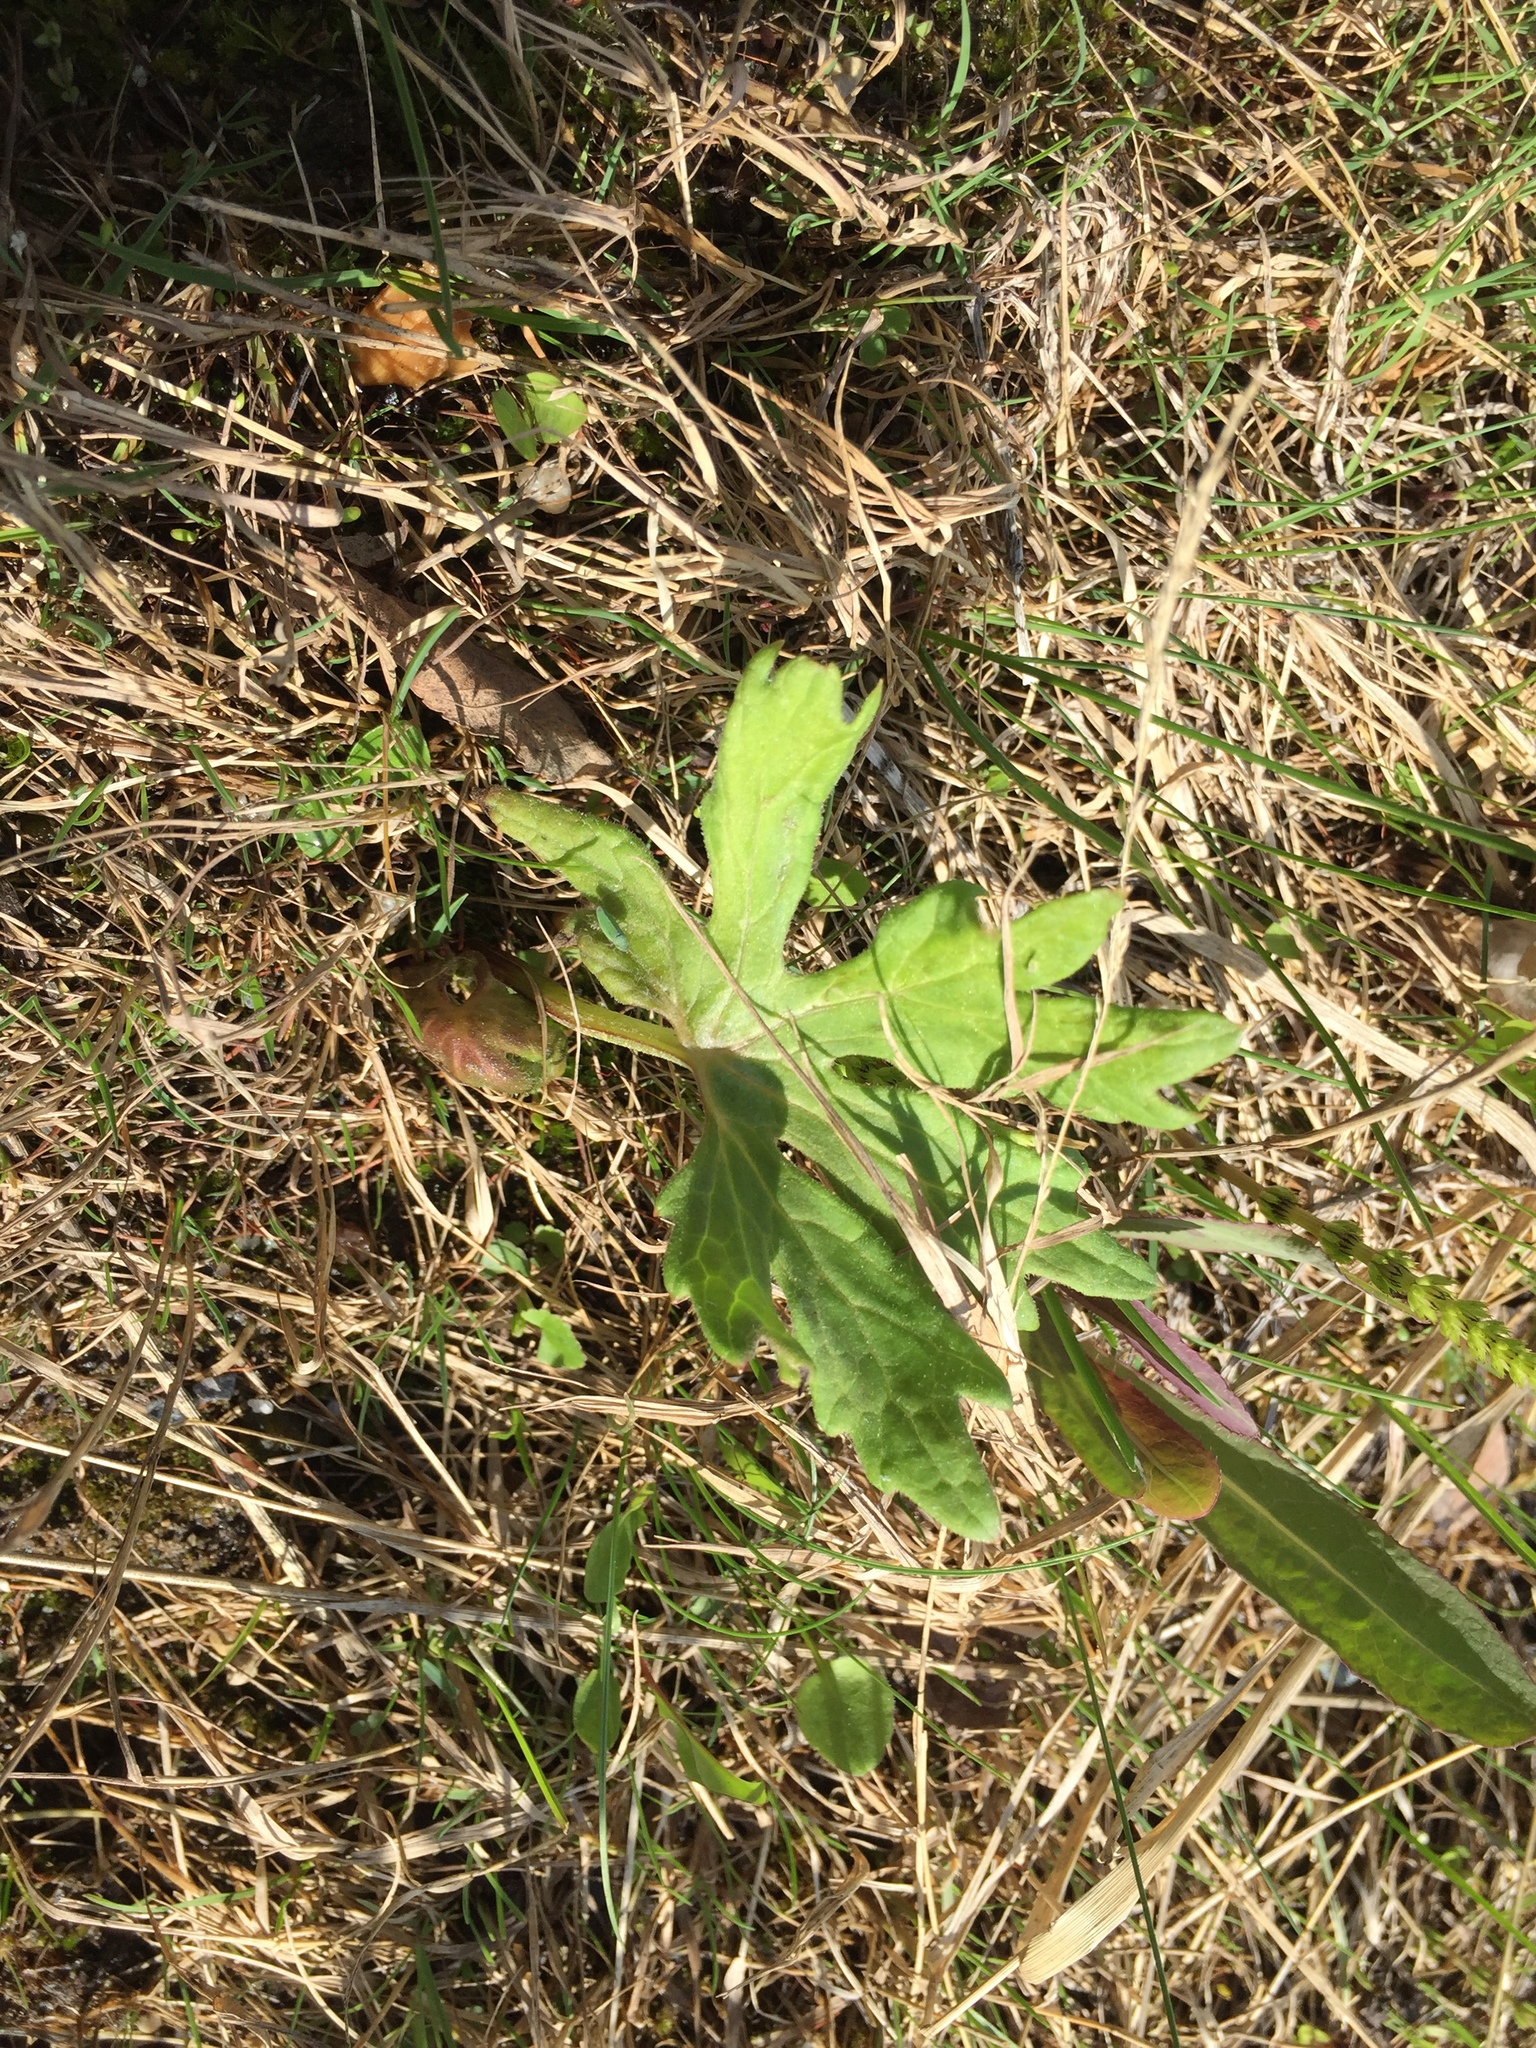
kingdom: Plantae
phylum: Tracheophyta
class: Magnoliopsida
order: Asterales
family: Asteraceae
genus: Petasites
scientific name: Petasites frigidus
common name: Arctic butterbur
